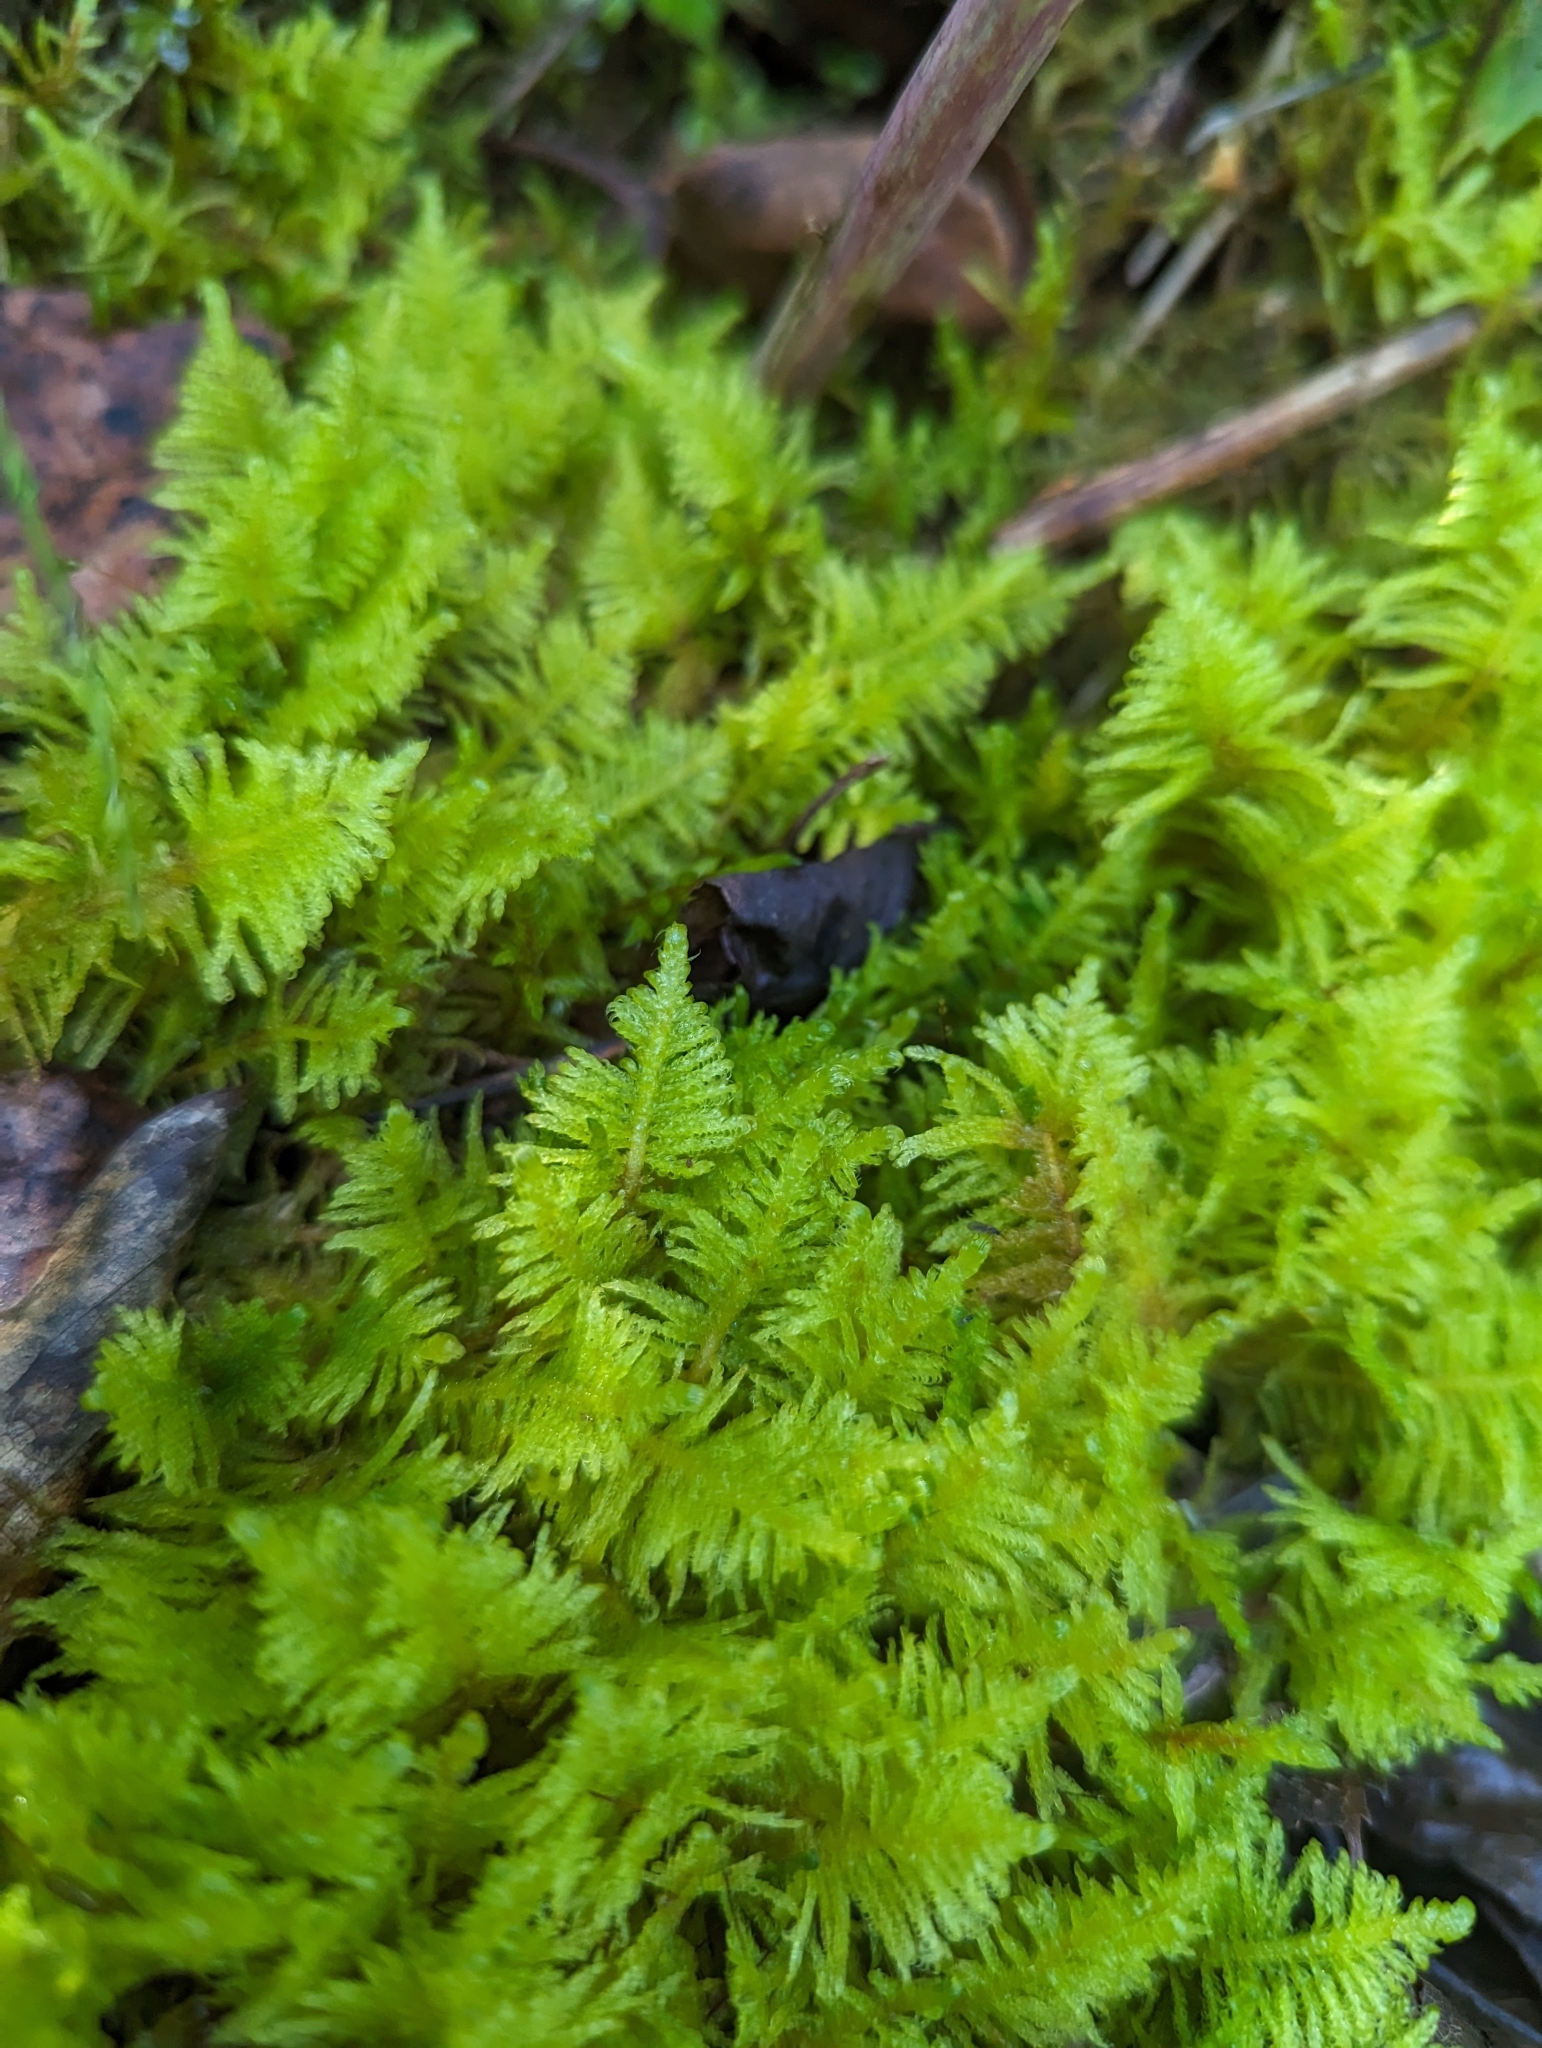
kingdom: Plantae
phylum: Bryophyta
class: Bryopsida
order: Hypnales
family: Pylaisiaceae
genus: Ptilium
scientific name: Ptilium crista-castrensis
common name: Knight's plume moss
